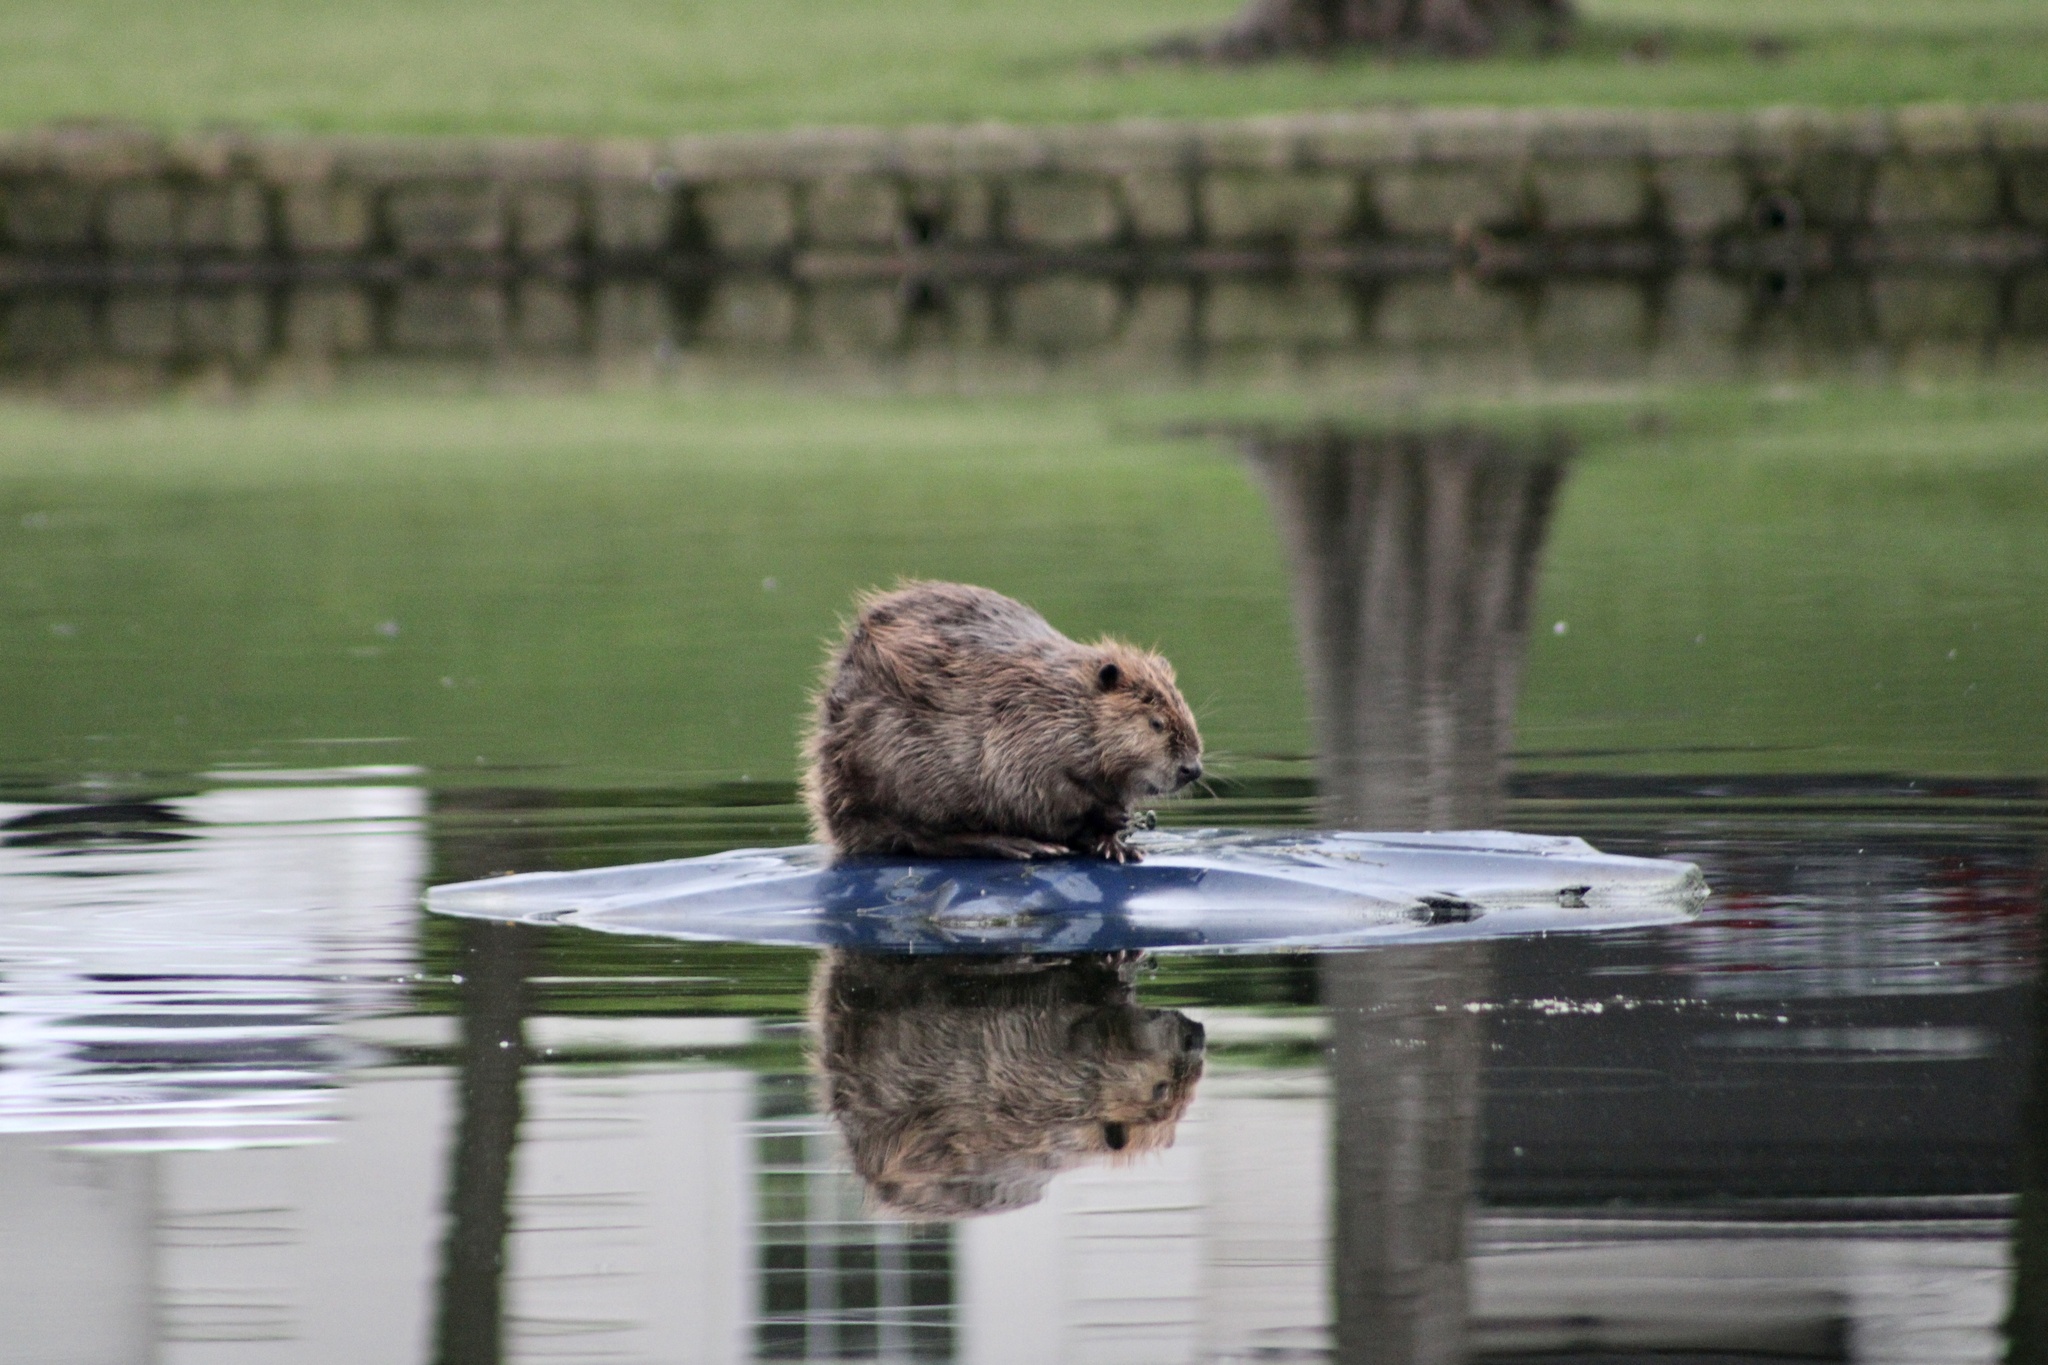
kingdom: Animalia
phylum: Chordata
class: Mammalia
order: Rodentia
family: Castoridae
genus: Castor
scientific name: Castor canadensis
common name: American beaver
